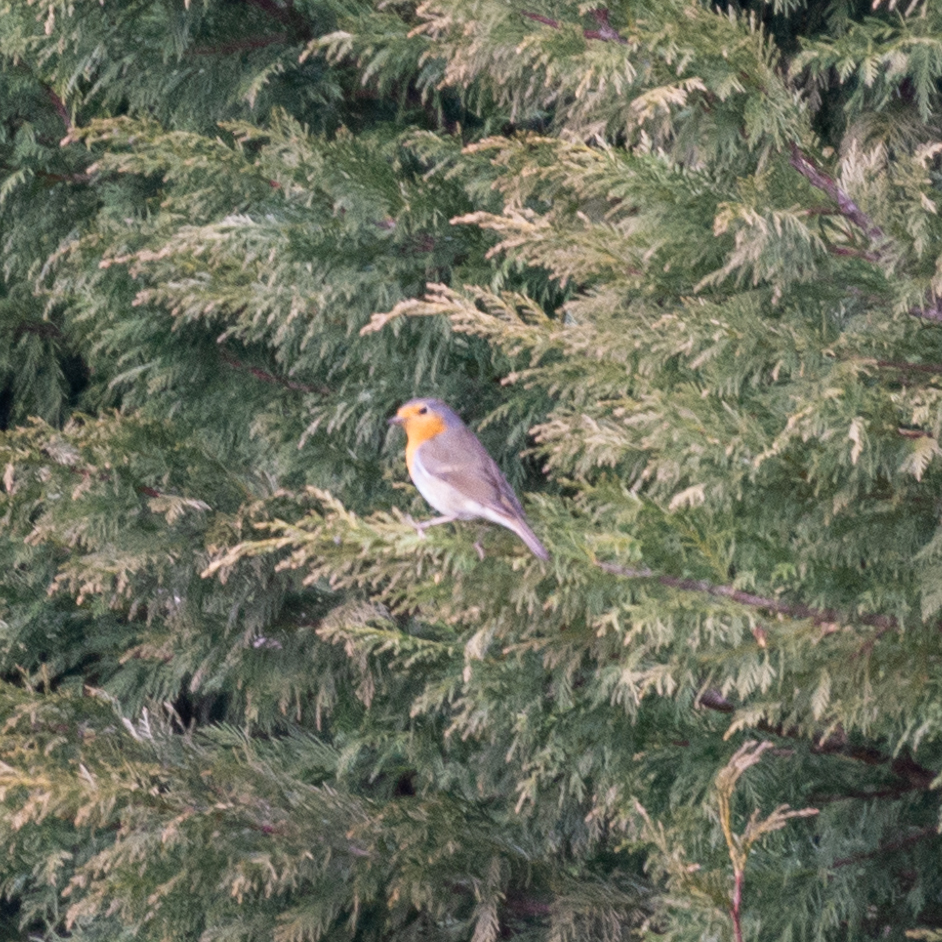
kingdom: Animalia
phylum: Chordata
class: Aves
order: Passeriformes
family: Muscicapidae
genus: Erithacus
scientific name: Erithacus rubecula
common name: European robin
